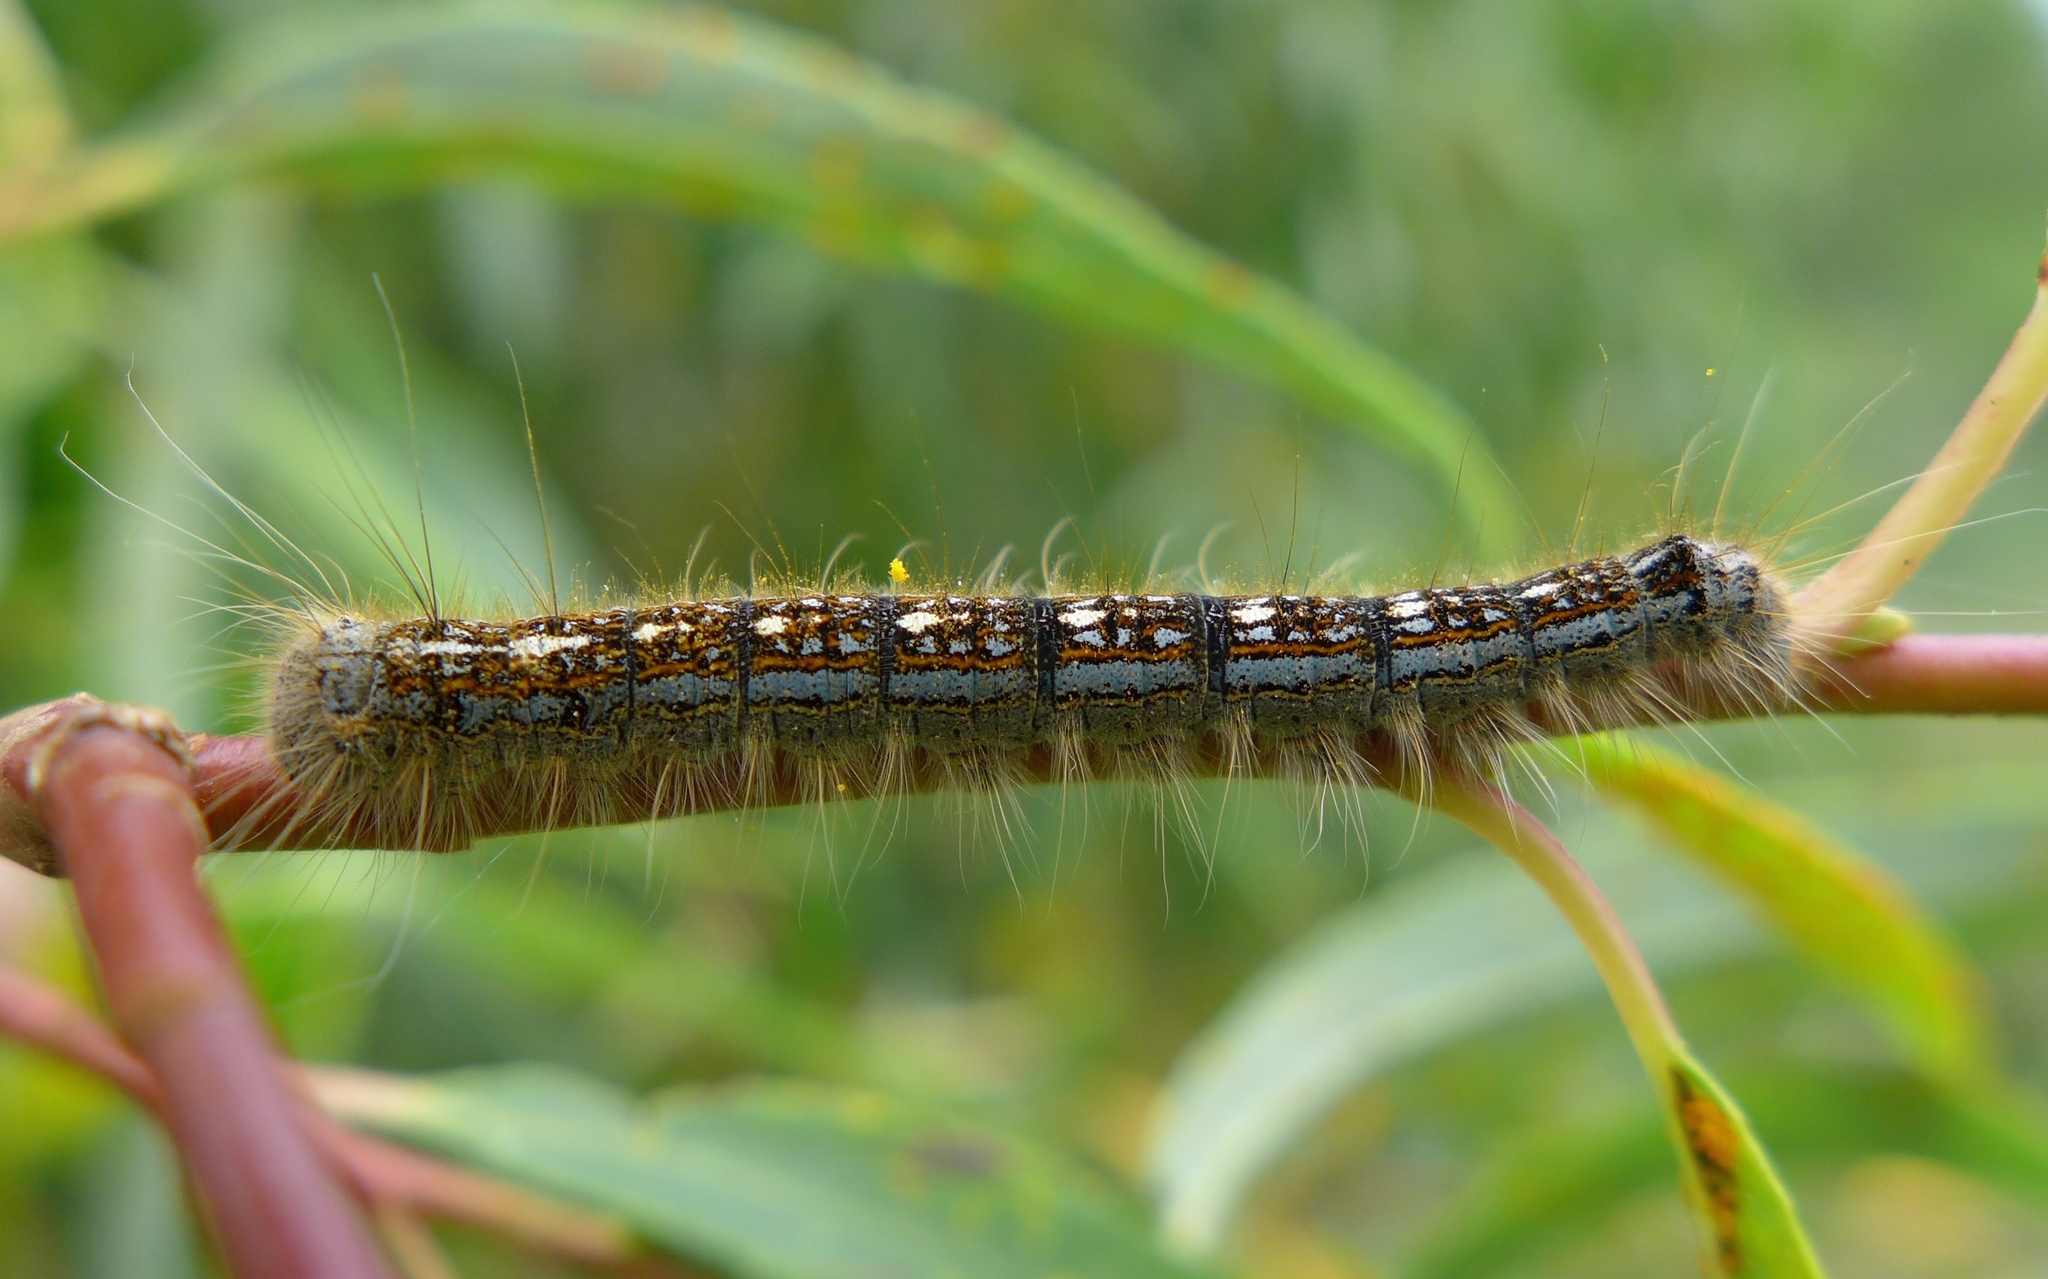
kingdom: Animalia
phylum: Arthropoda
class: Insecta
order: Lepidoptera
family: Lasiocampidae
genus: Malacosoma
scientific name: Malacosoma disstria
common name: Forest tent caterpillar
